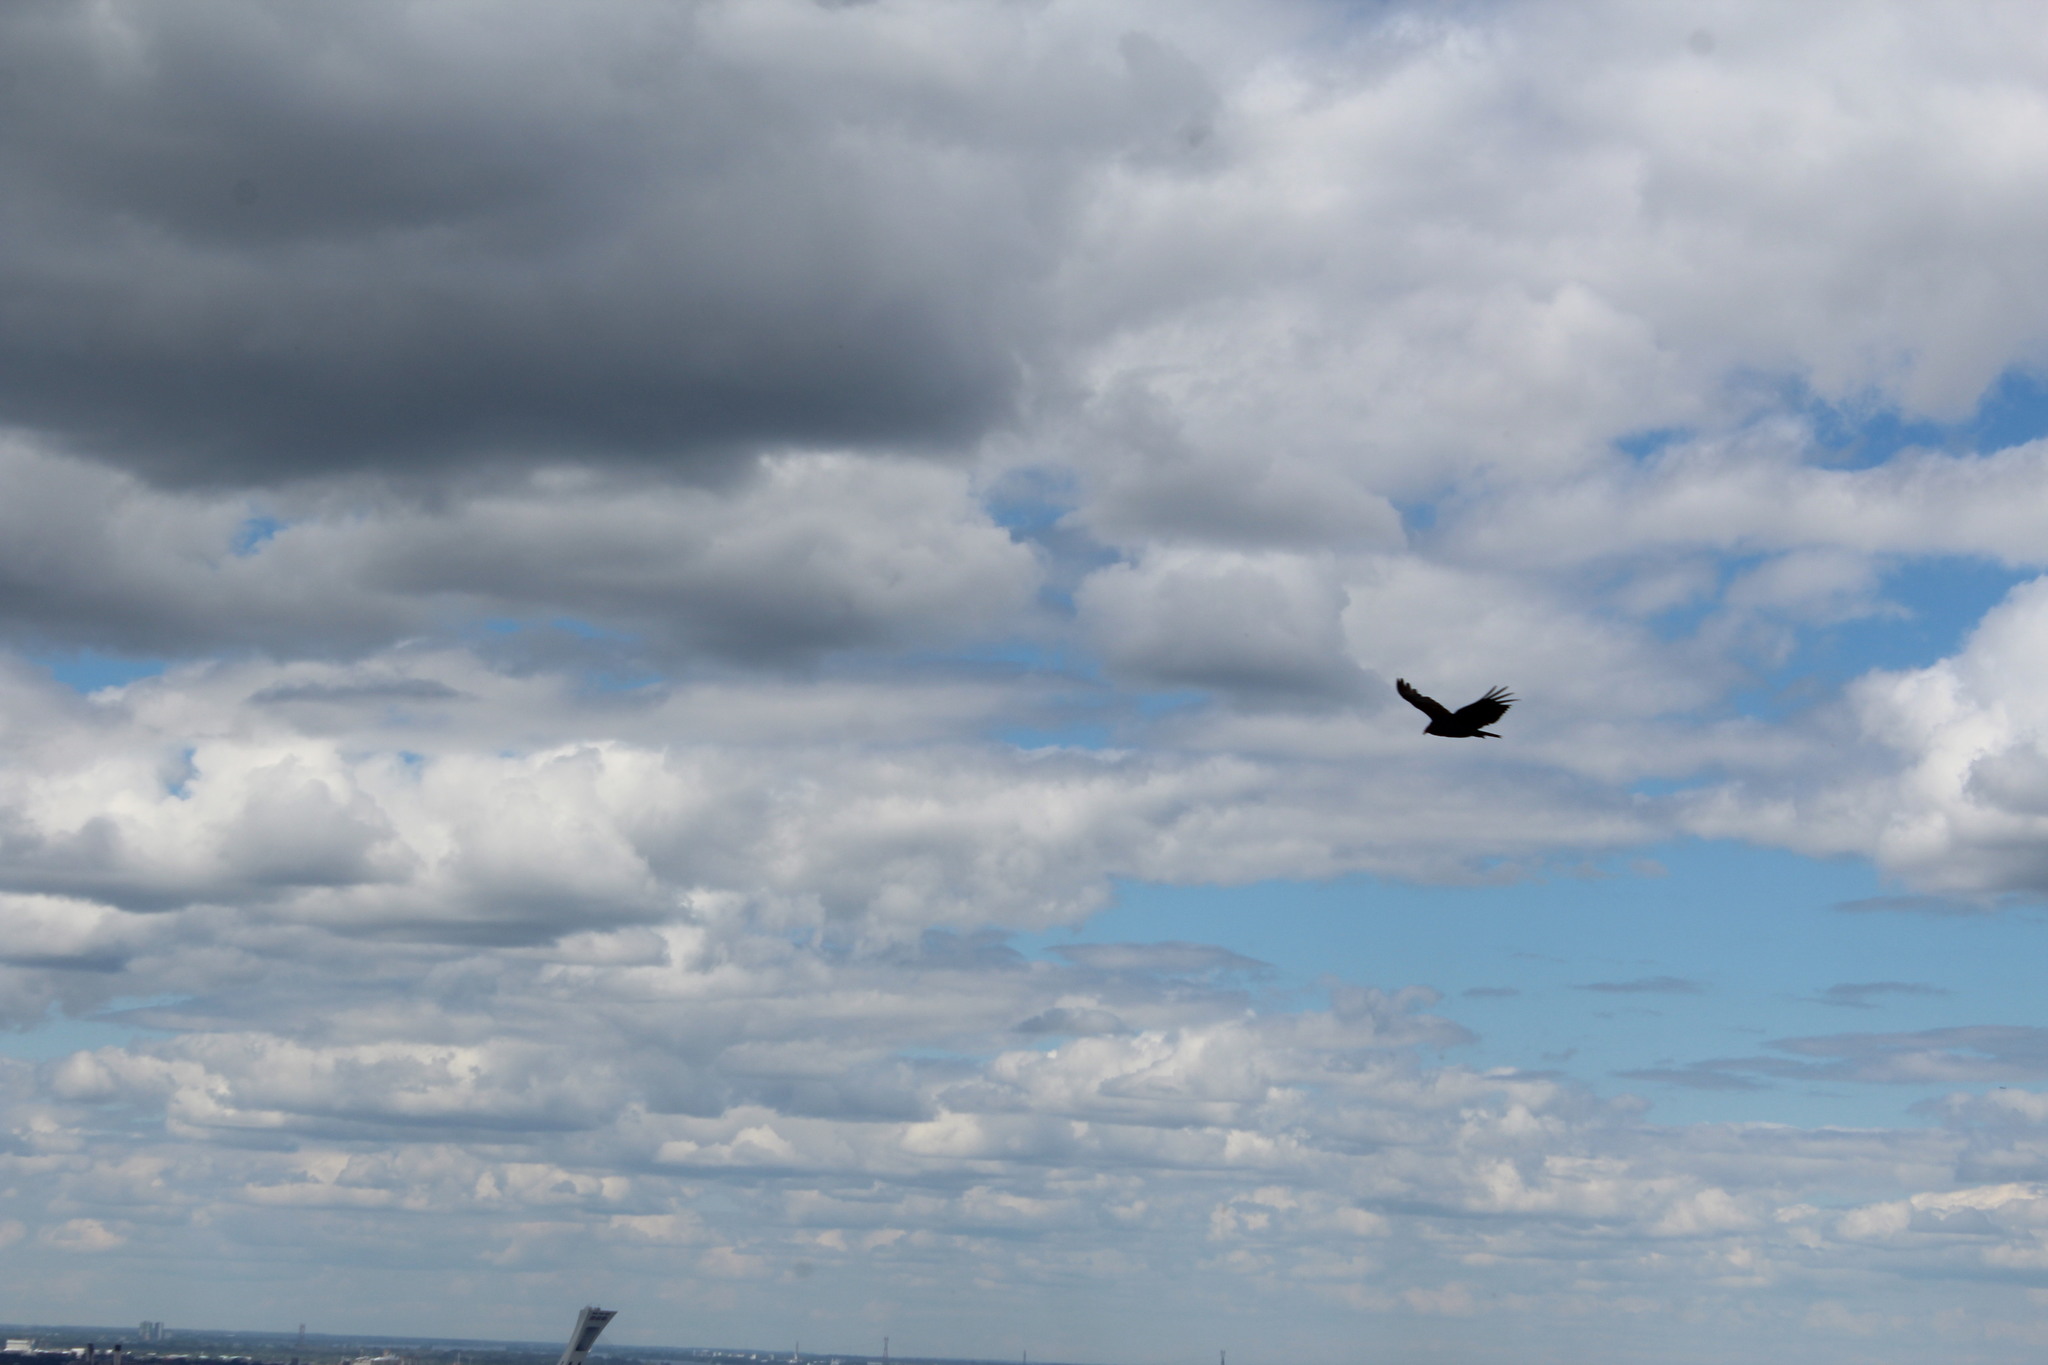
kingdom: Animalia
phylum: Chordata
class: Aves
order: Accipitriformes
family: Cathartidae
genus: Cathartes
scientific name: Cathartes aura
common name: Turkey vulture
